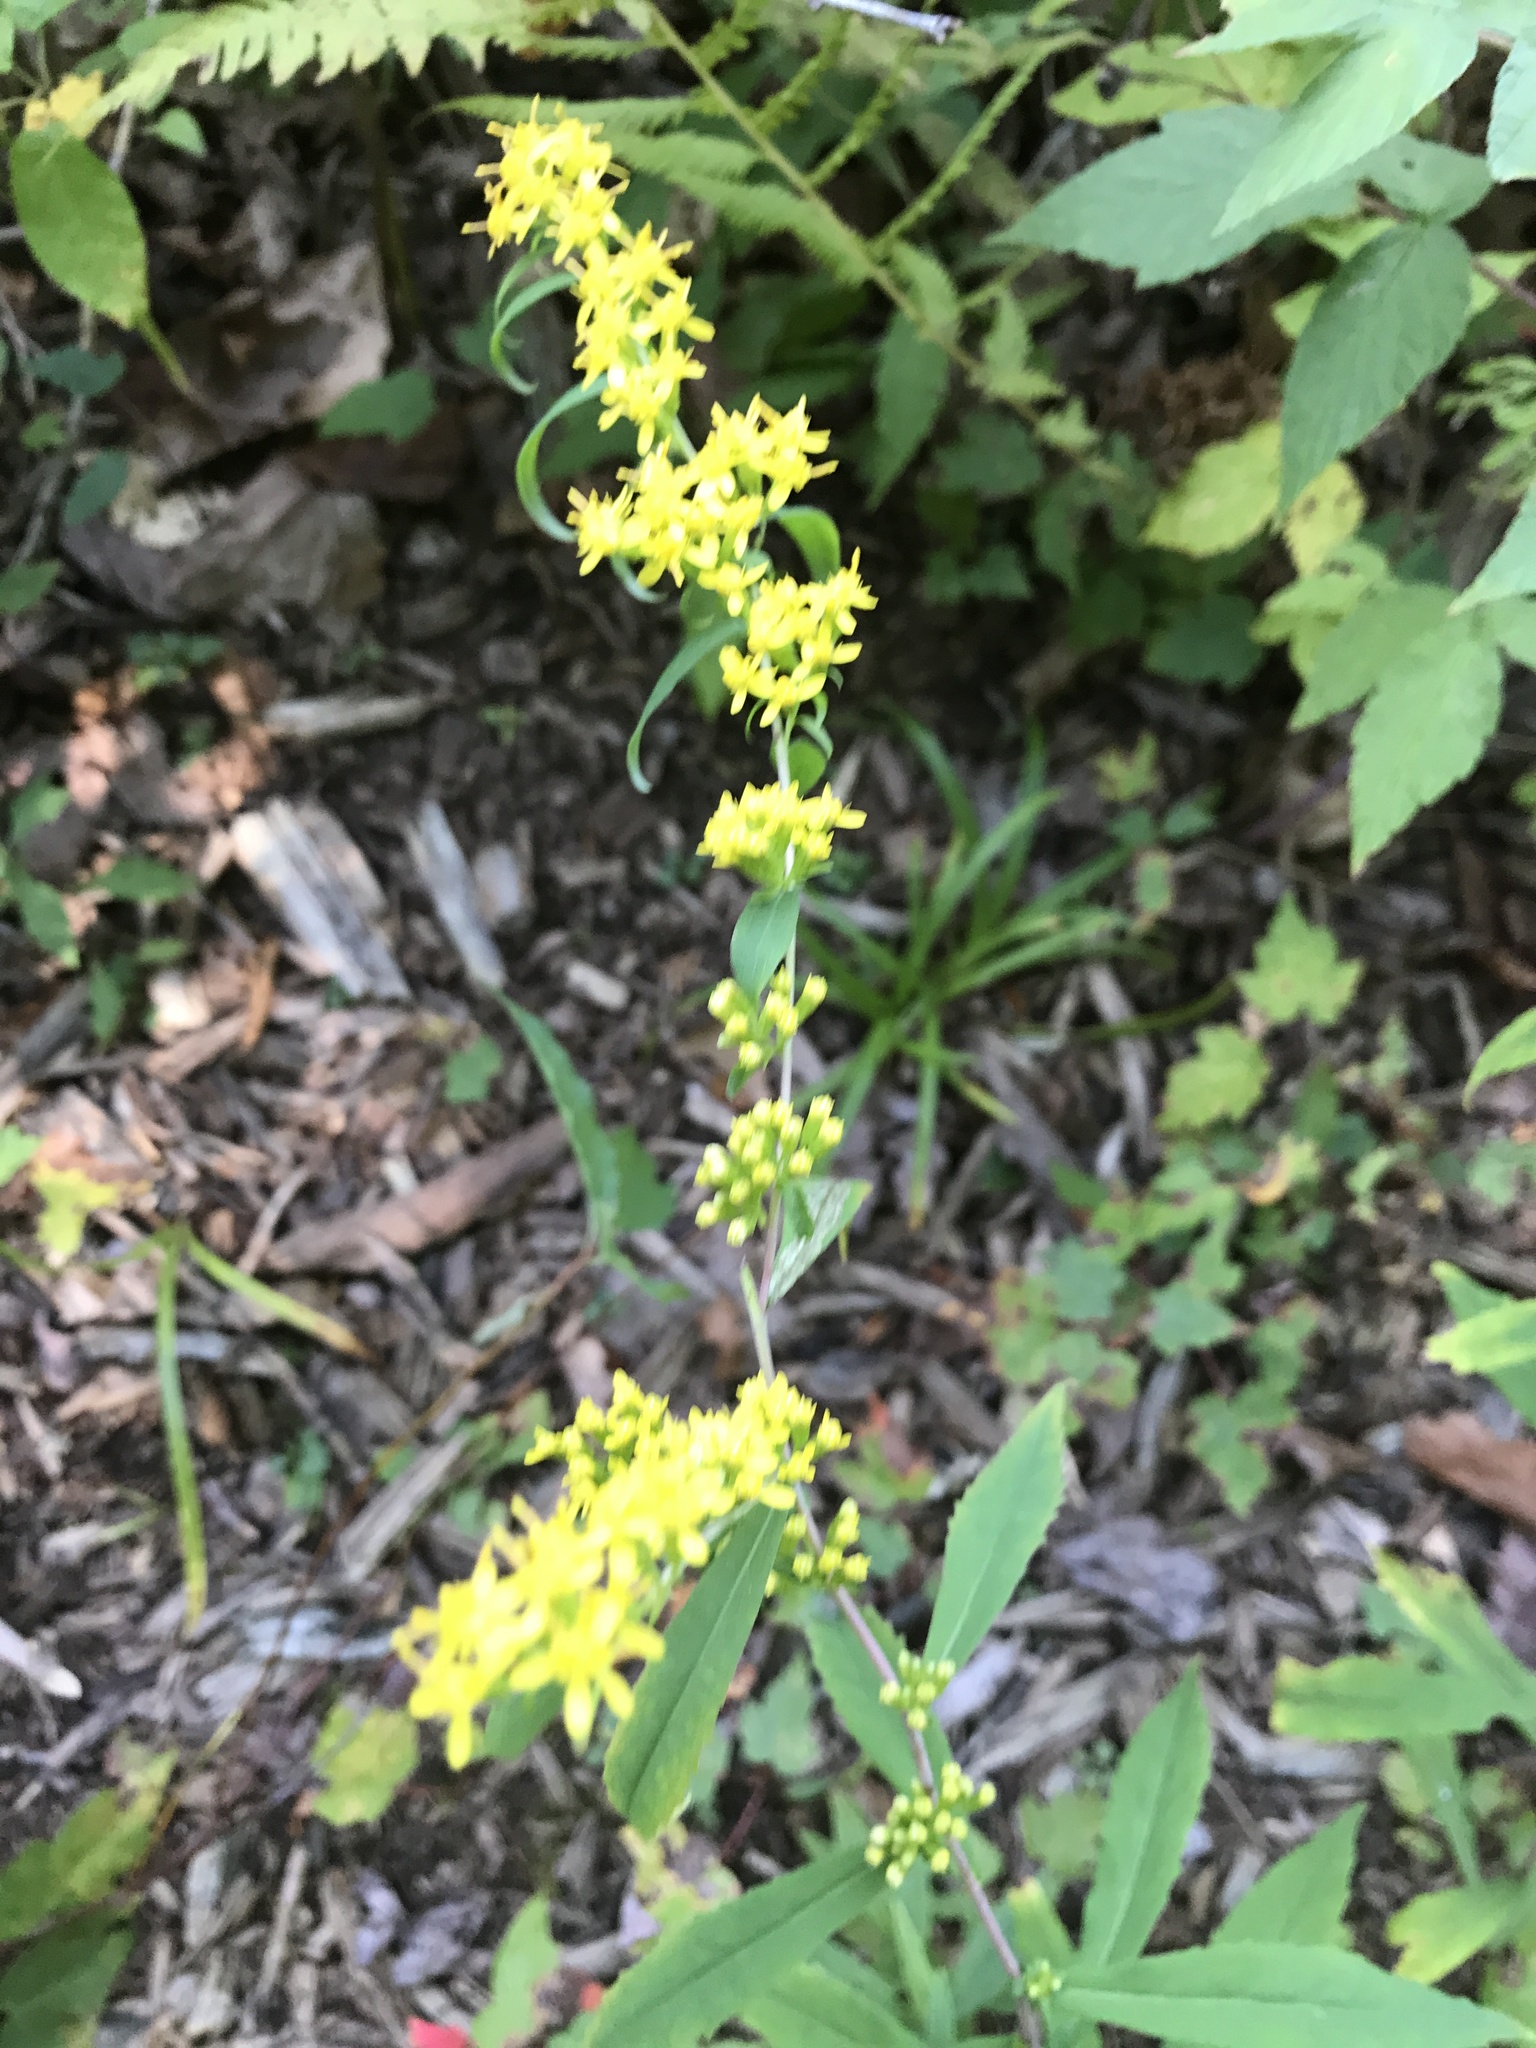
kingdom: Plantae
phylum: Tracheophyta
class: Magnoliopsida
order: Asterales
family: Asteraceae
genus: Solidago
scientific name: Solidago caesia
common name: Woodland goldenrod
